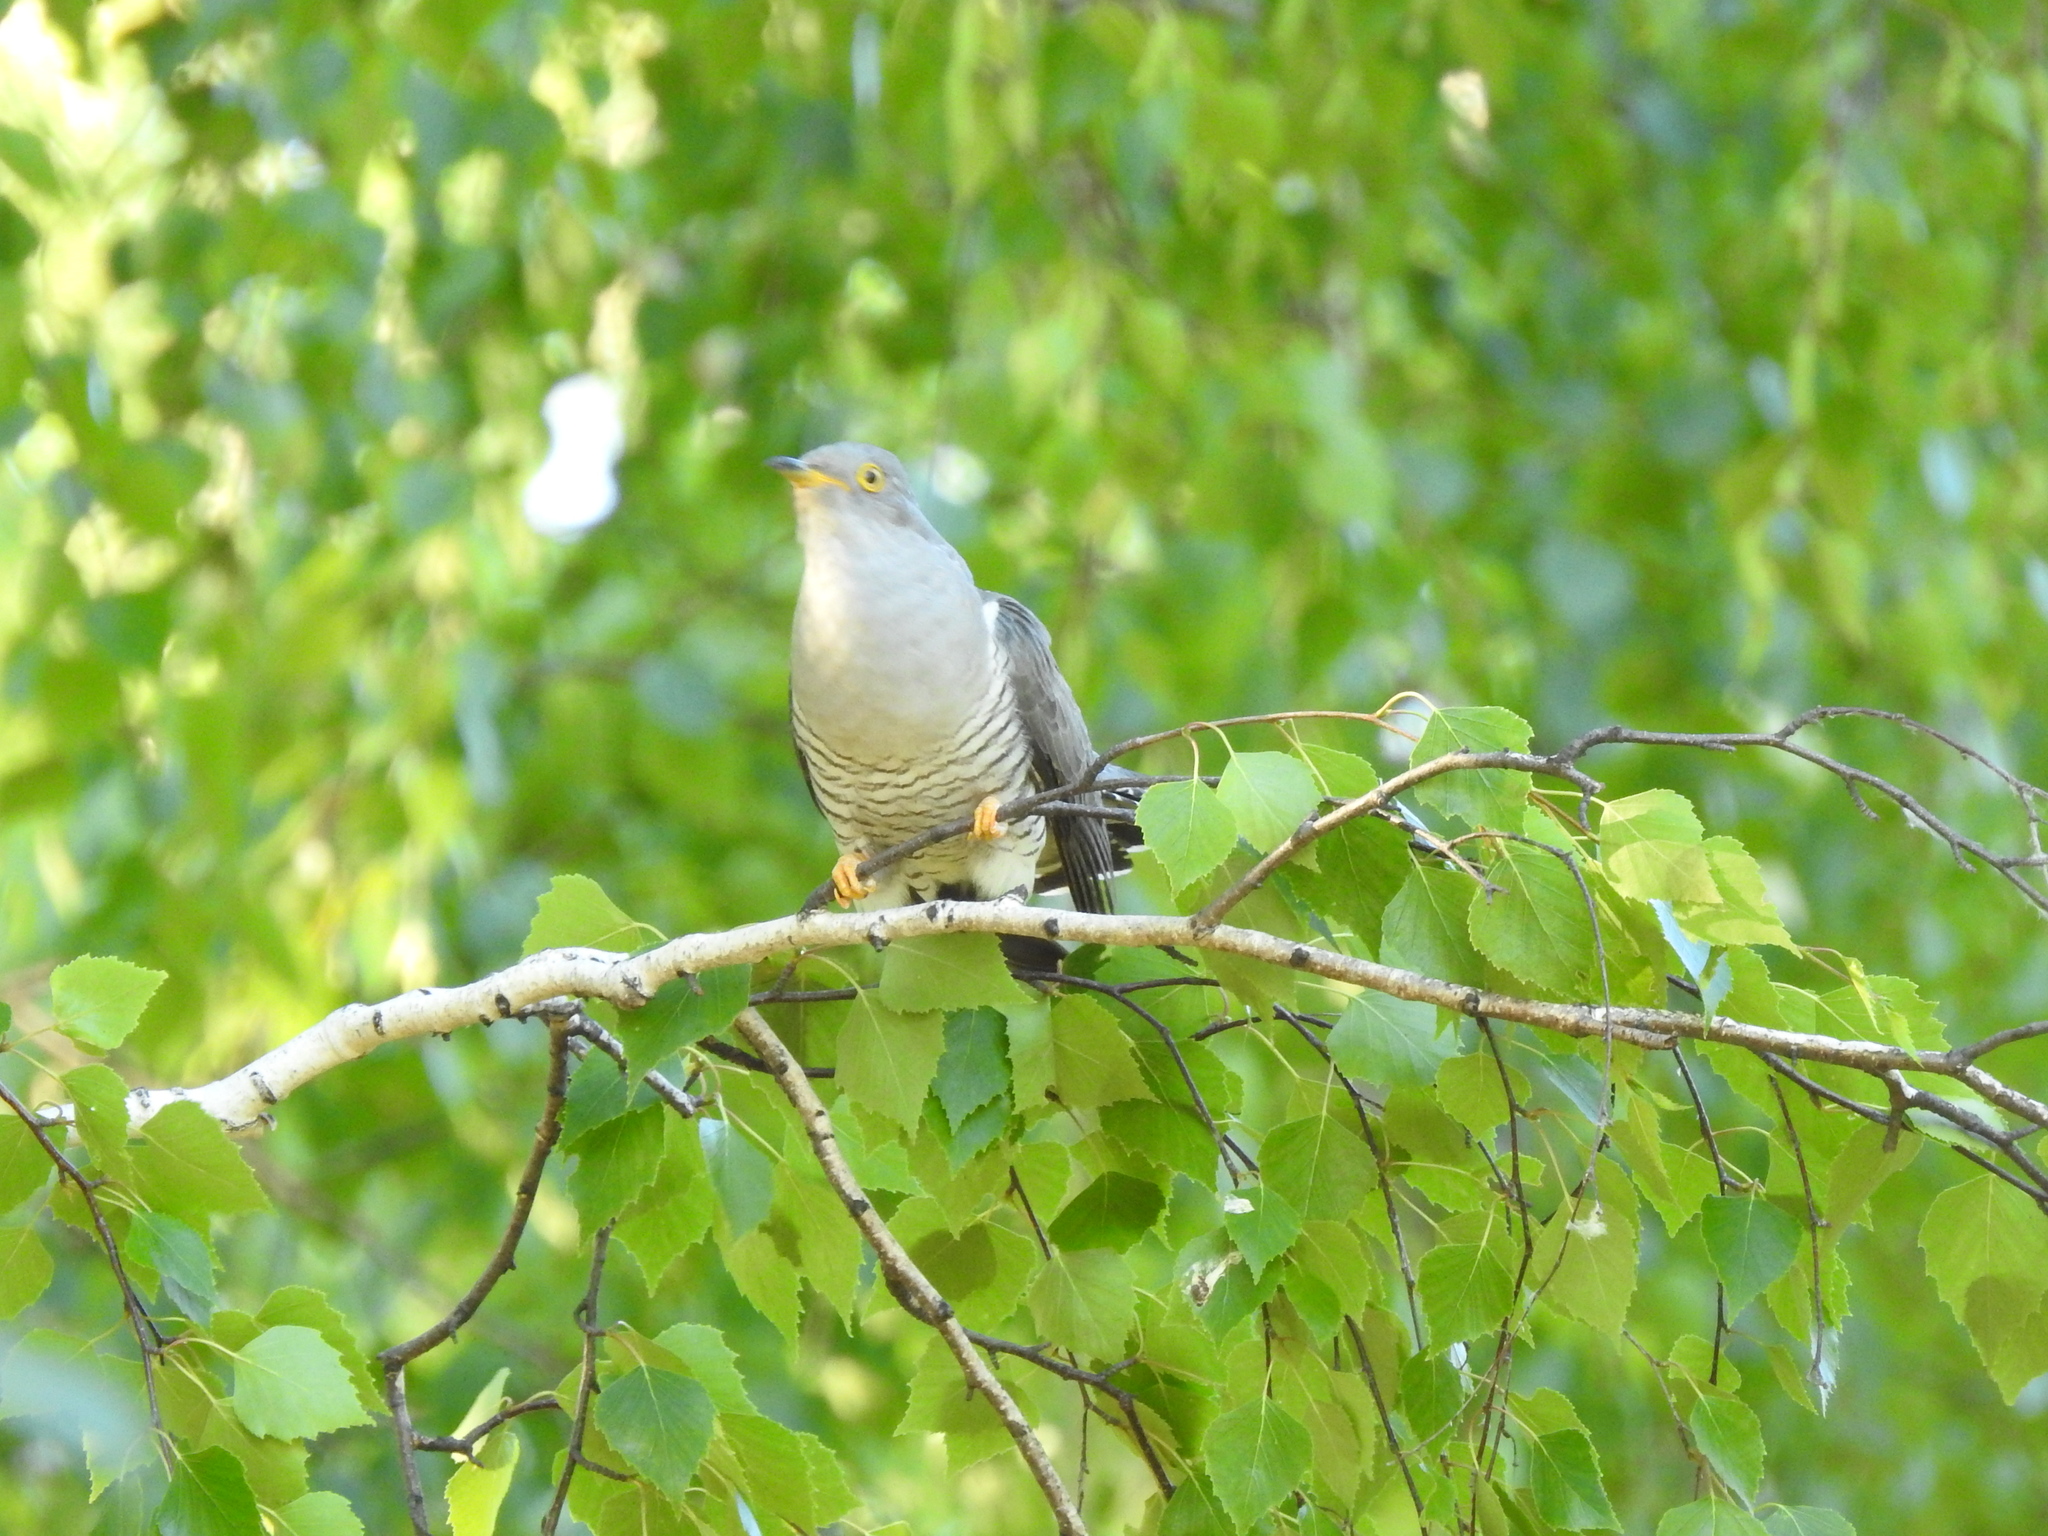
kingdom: Animalia
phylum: Chordata
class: Aves
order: Cuculiformes
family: Cuculidae
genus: Cuculus
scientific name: Cuculus canorus
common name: Common cuckoo
